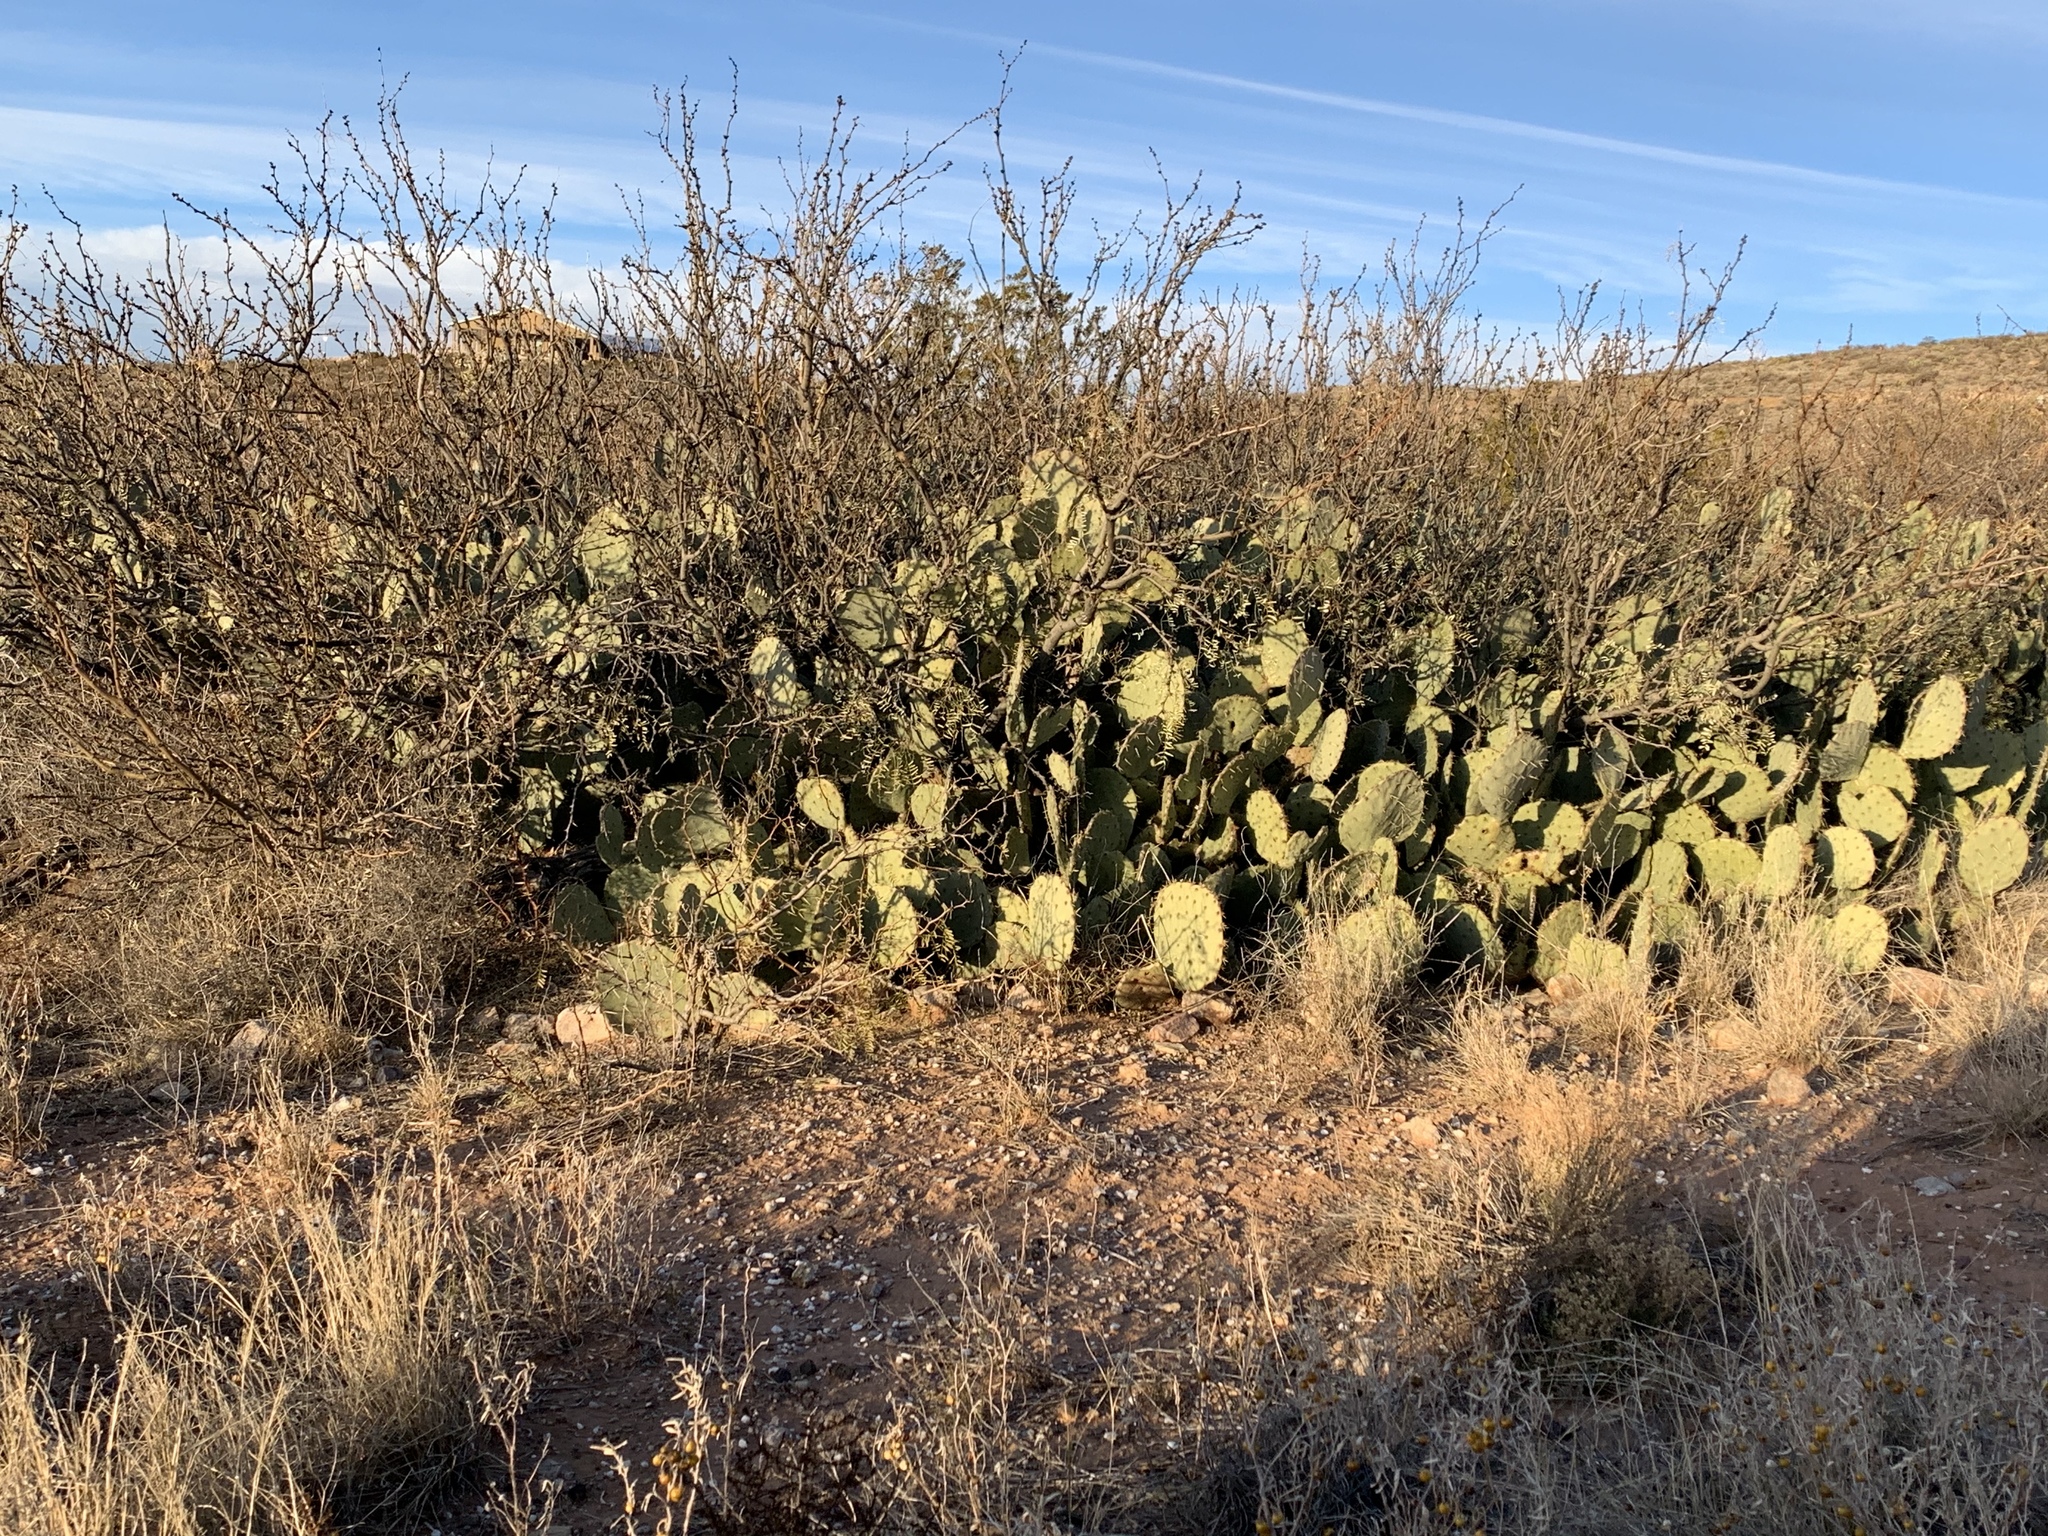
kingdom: Plantae
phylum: Tracheophyta
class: Magnoliopsida
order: Caryophyllales
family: Cactaceae
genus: Opuntia
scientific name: Opuntia engelmannii
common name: Cactus-apple
